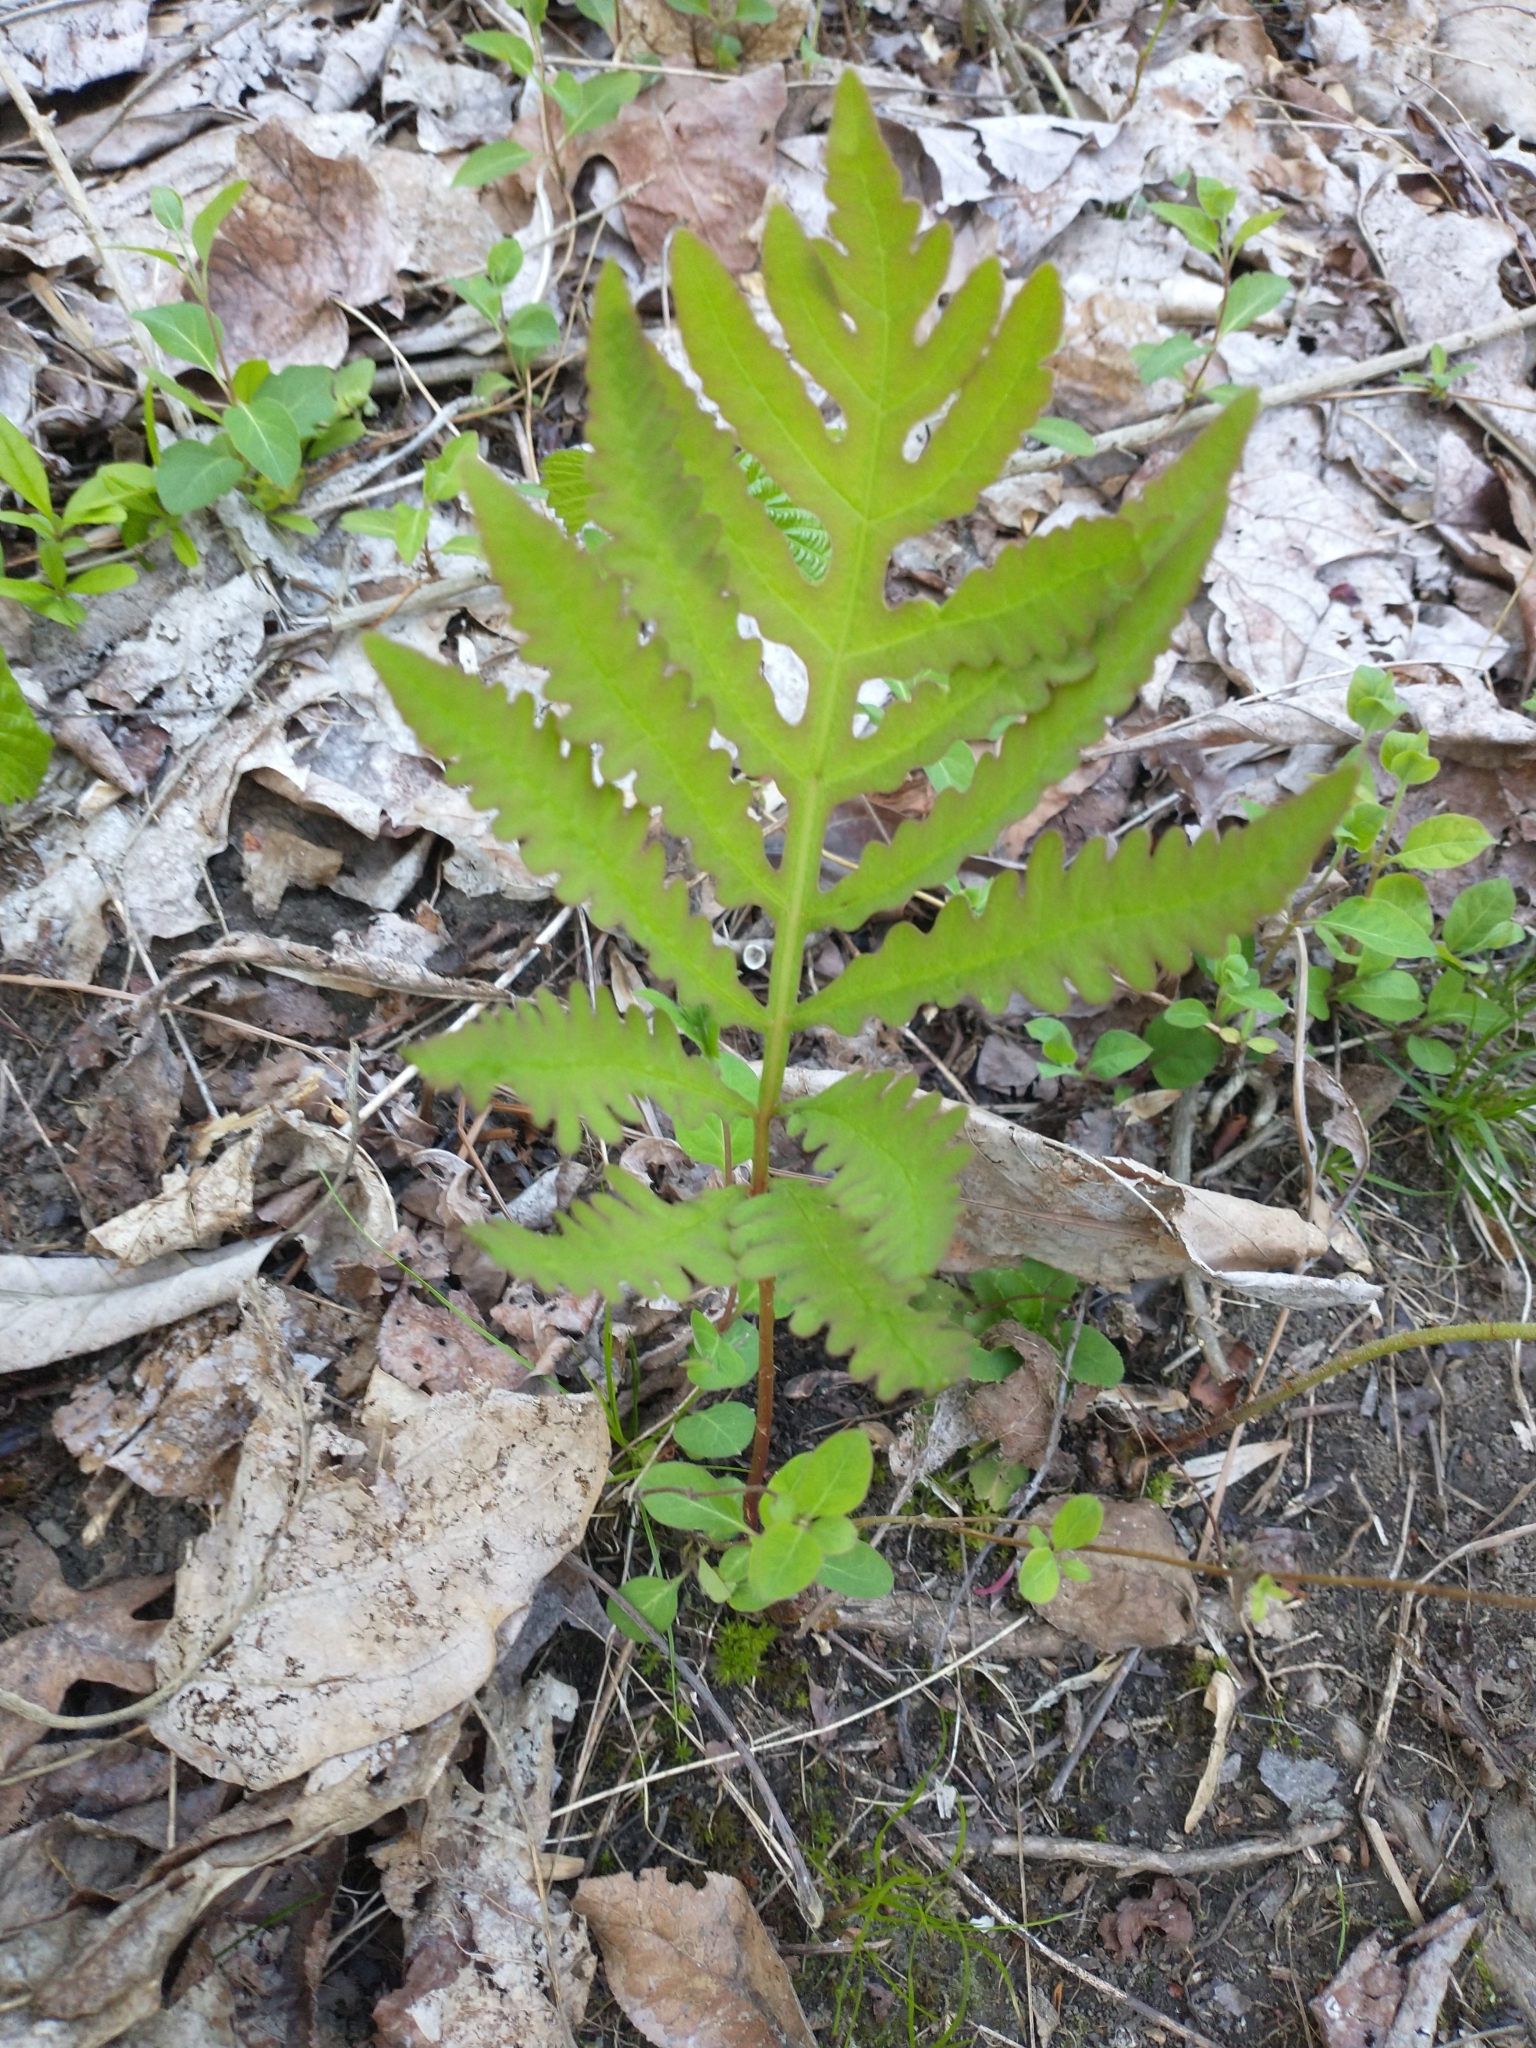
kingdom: Plantae
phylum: Tracheophyta
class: Polypodiopsida
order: Polypodiales
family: Onocleaceae
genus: Onoclea
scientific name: Onoclea sensibilis
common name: Sensitive fern
